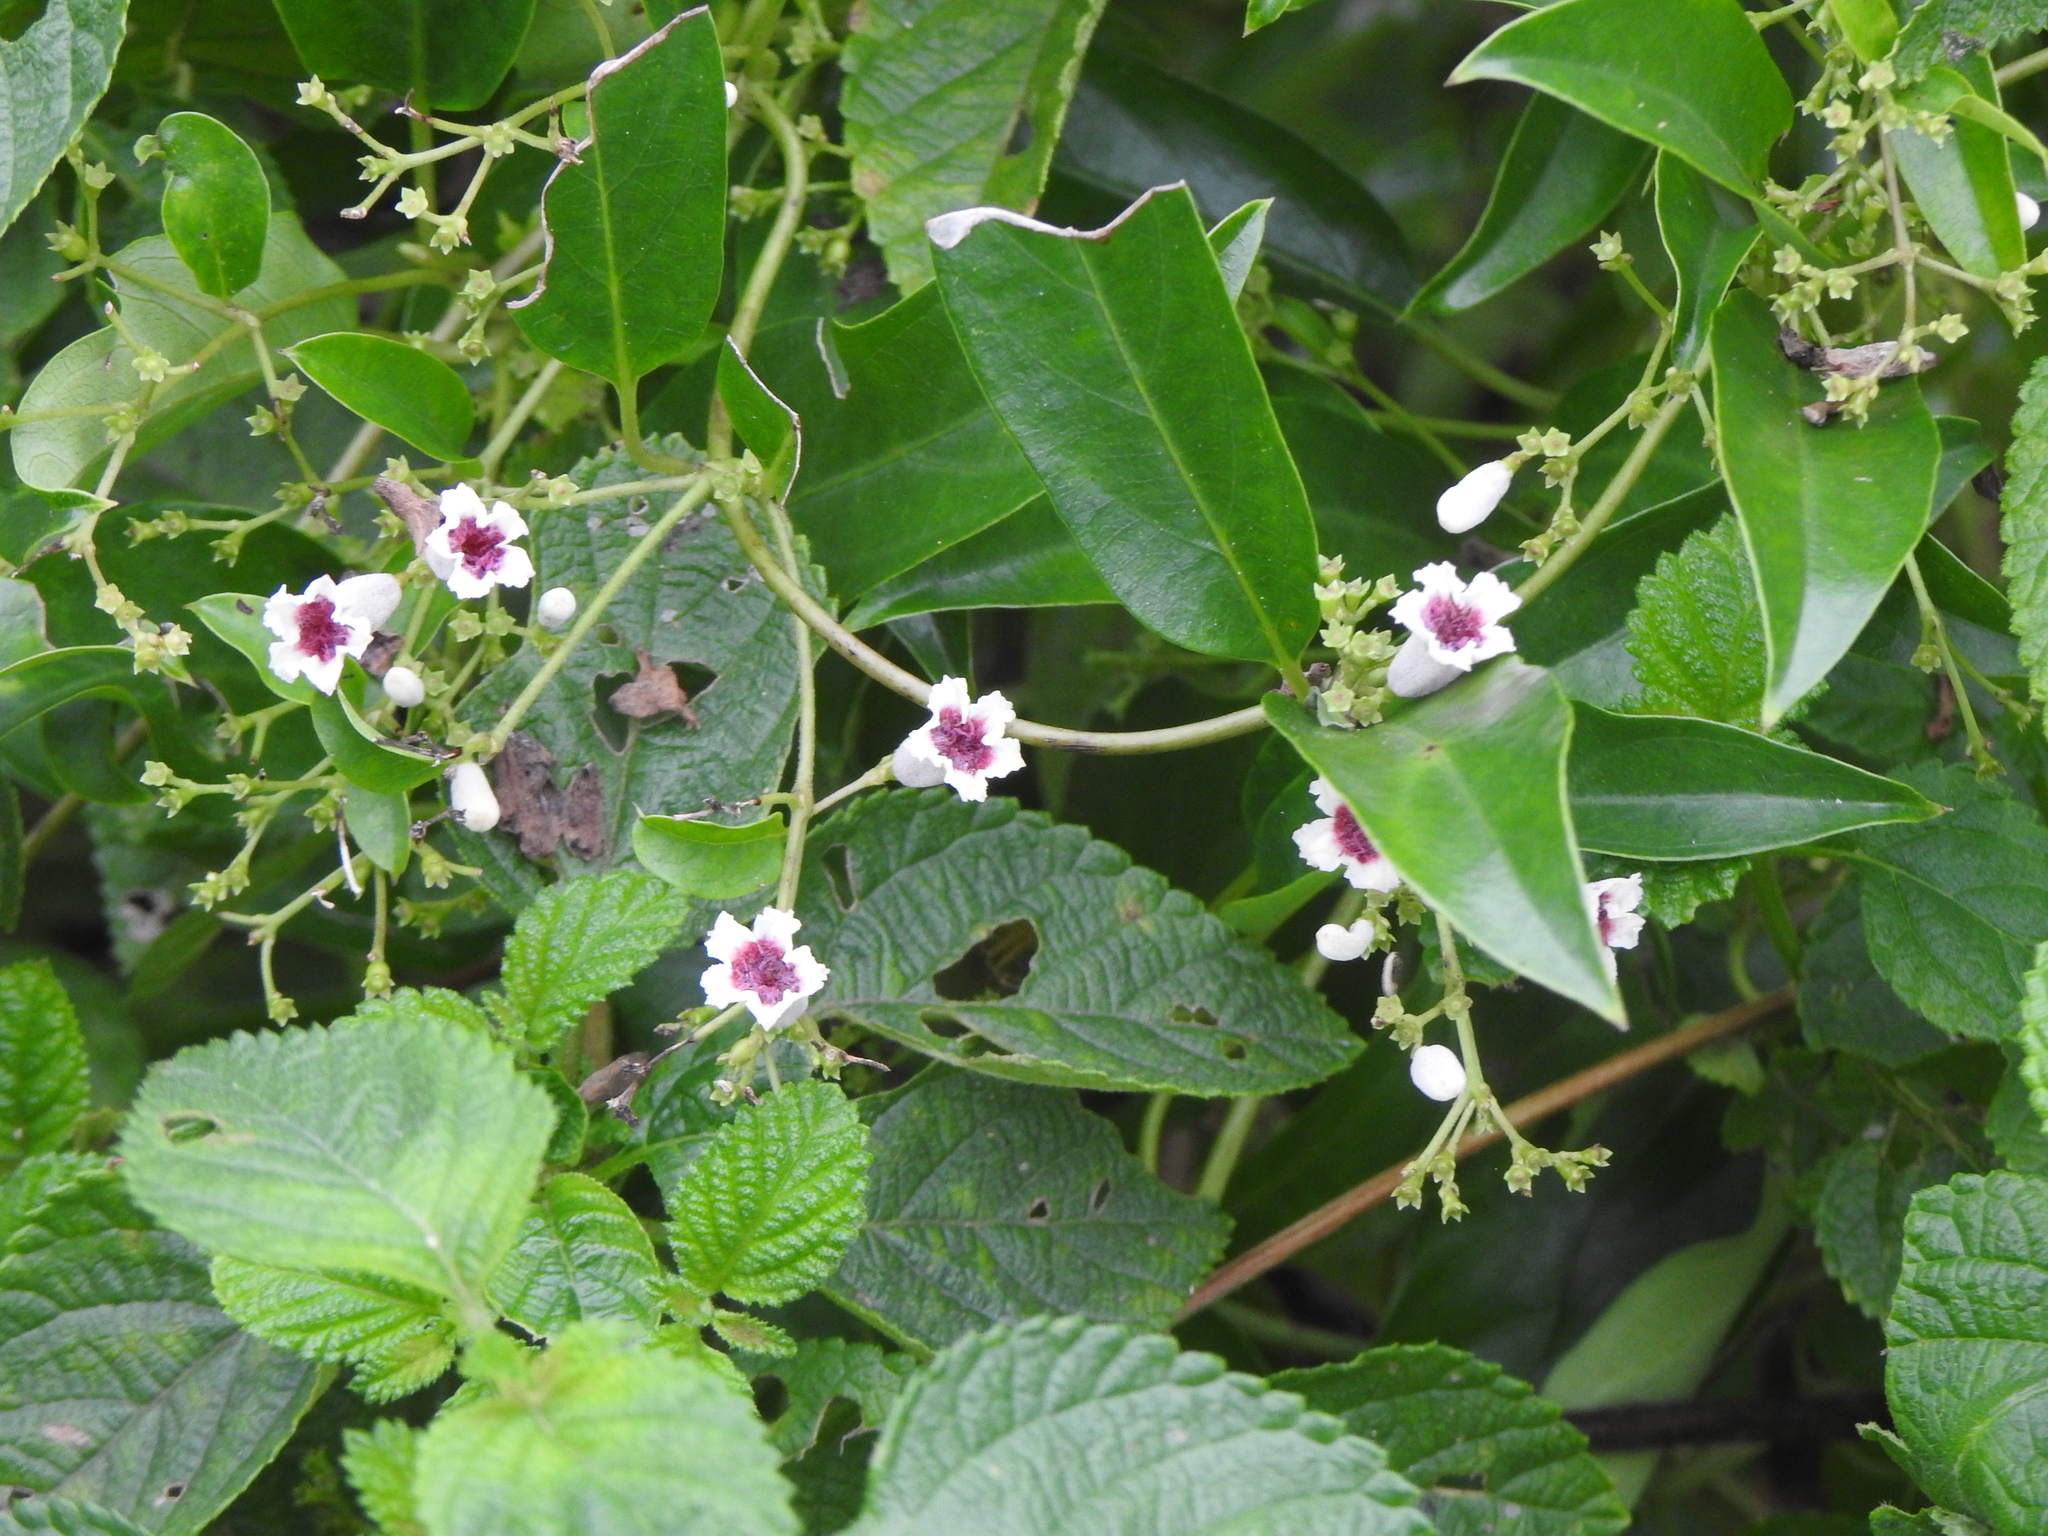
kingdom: Plantae
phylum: Tracheophyta
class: Magnoliopsida
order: Gentianales
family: Rubiaceae
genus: Paederia
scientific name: Paederia foetida
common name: Stinkvine
